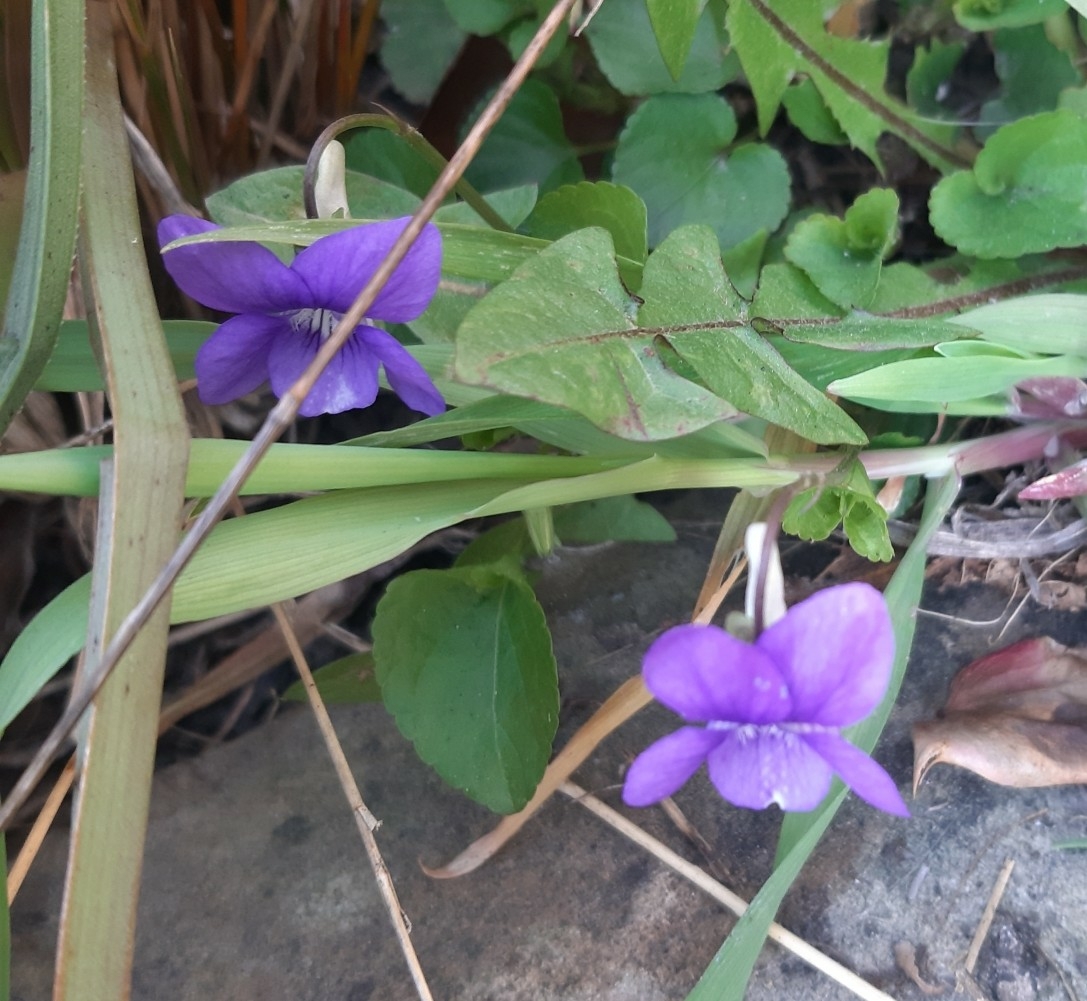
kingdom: Plantae
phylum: Tracheophyta
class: Magnoliopsida
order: Malpighiales
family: Violaceae
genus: Viola
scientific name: Viola riviniana
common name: Common dog-violet
